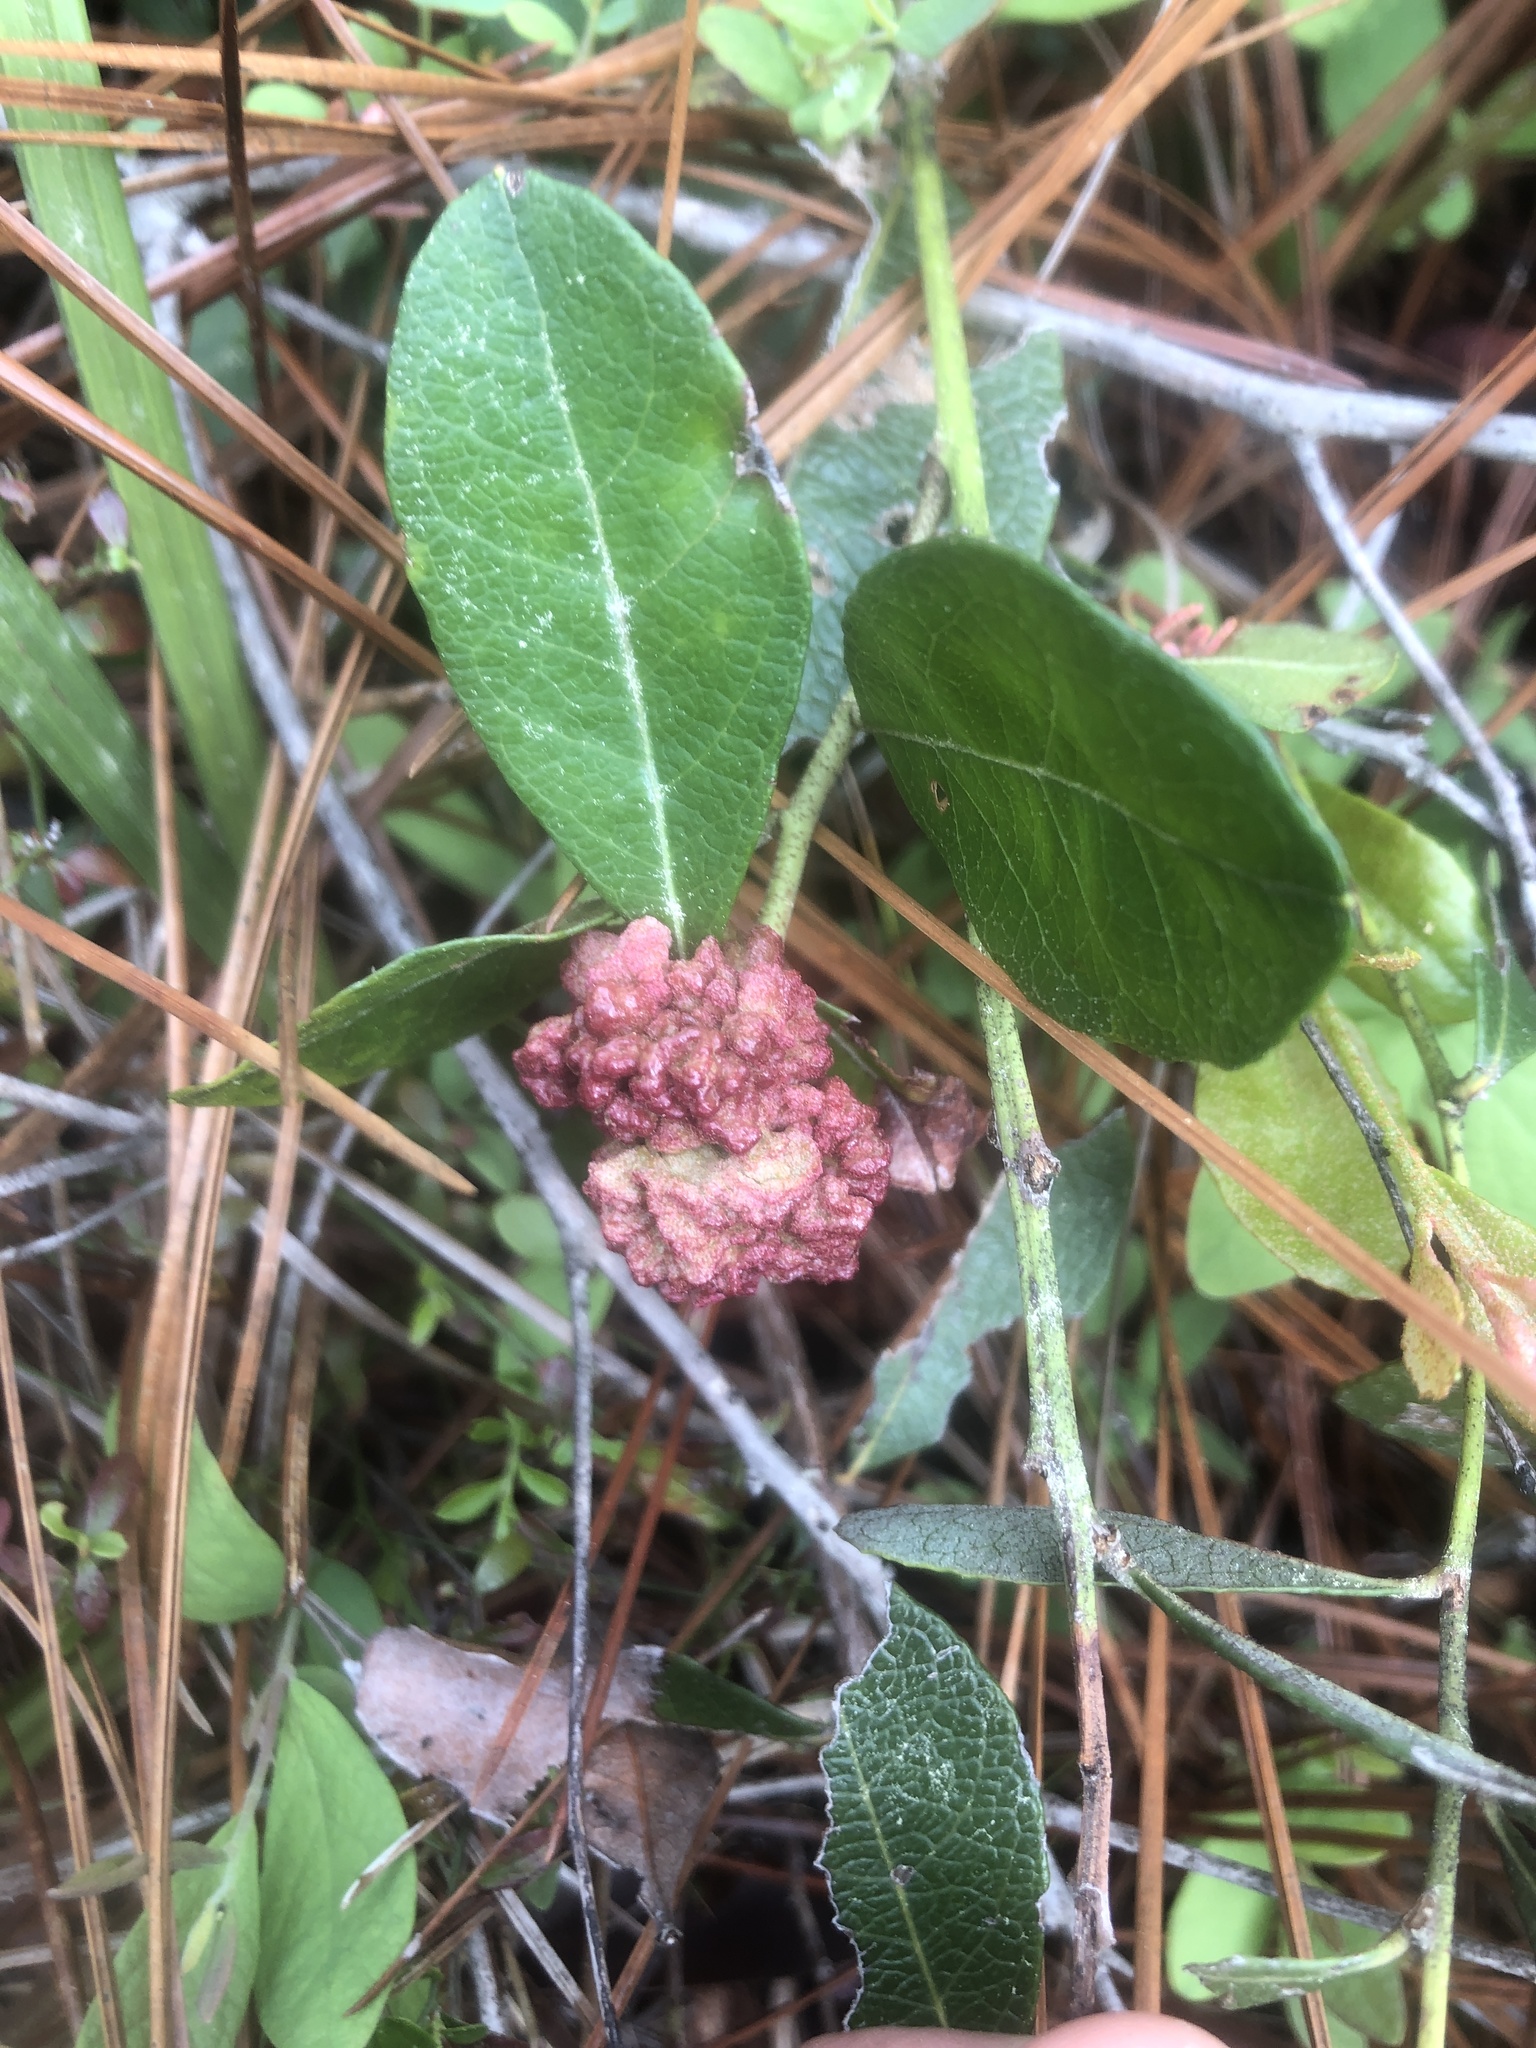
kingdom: Fungi
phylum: Basidiomycota
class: Exobasidiomycetes
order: Exobasidiales
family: Exobasidiaceae
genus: Exobasidium
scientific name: Exobasidium ferrugineae
